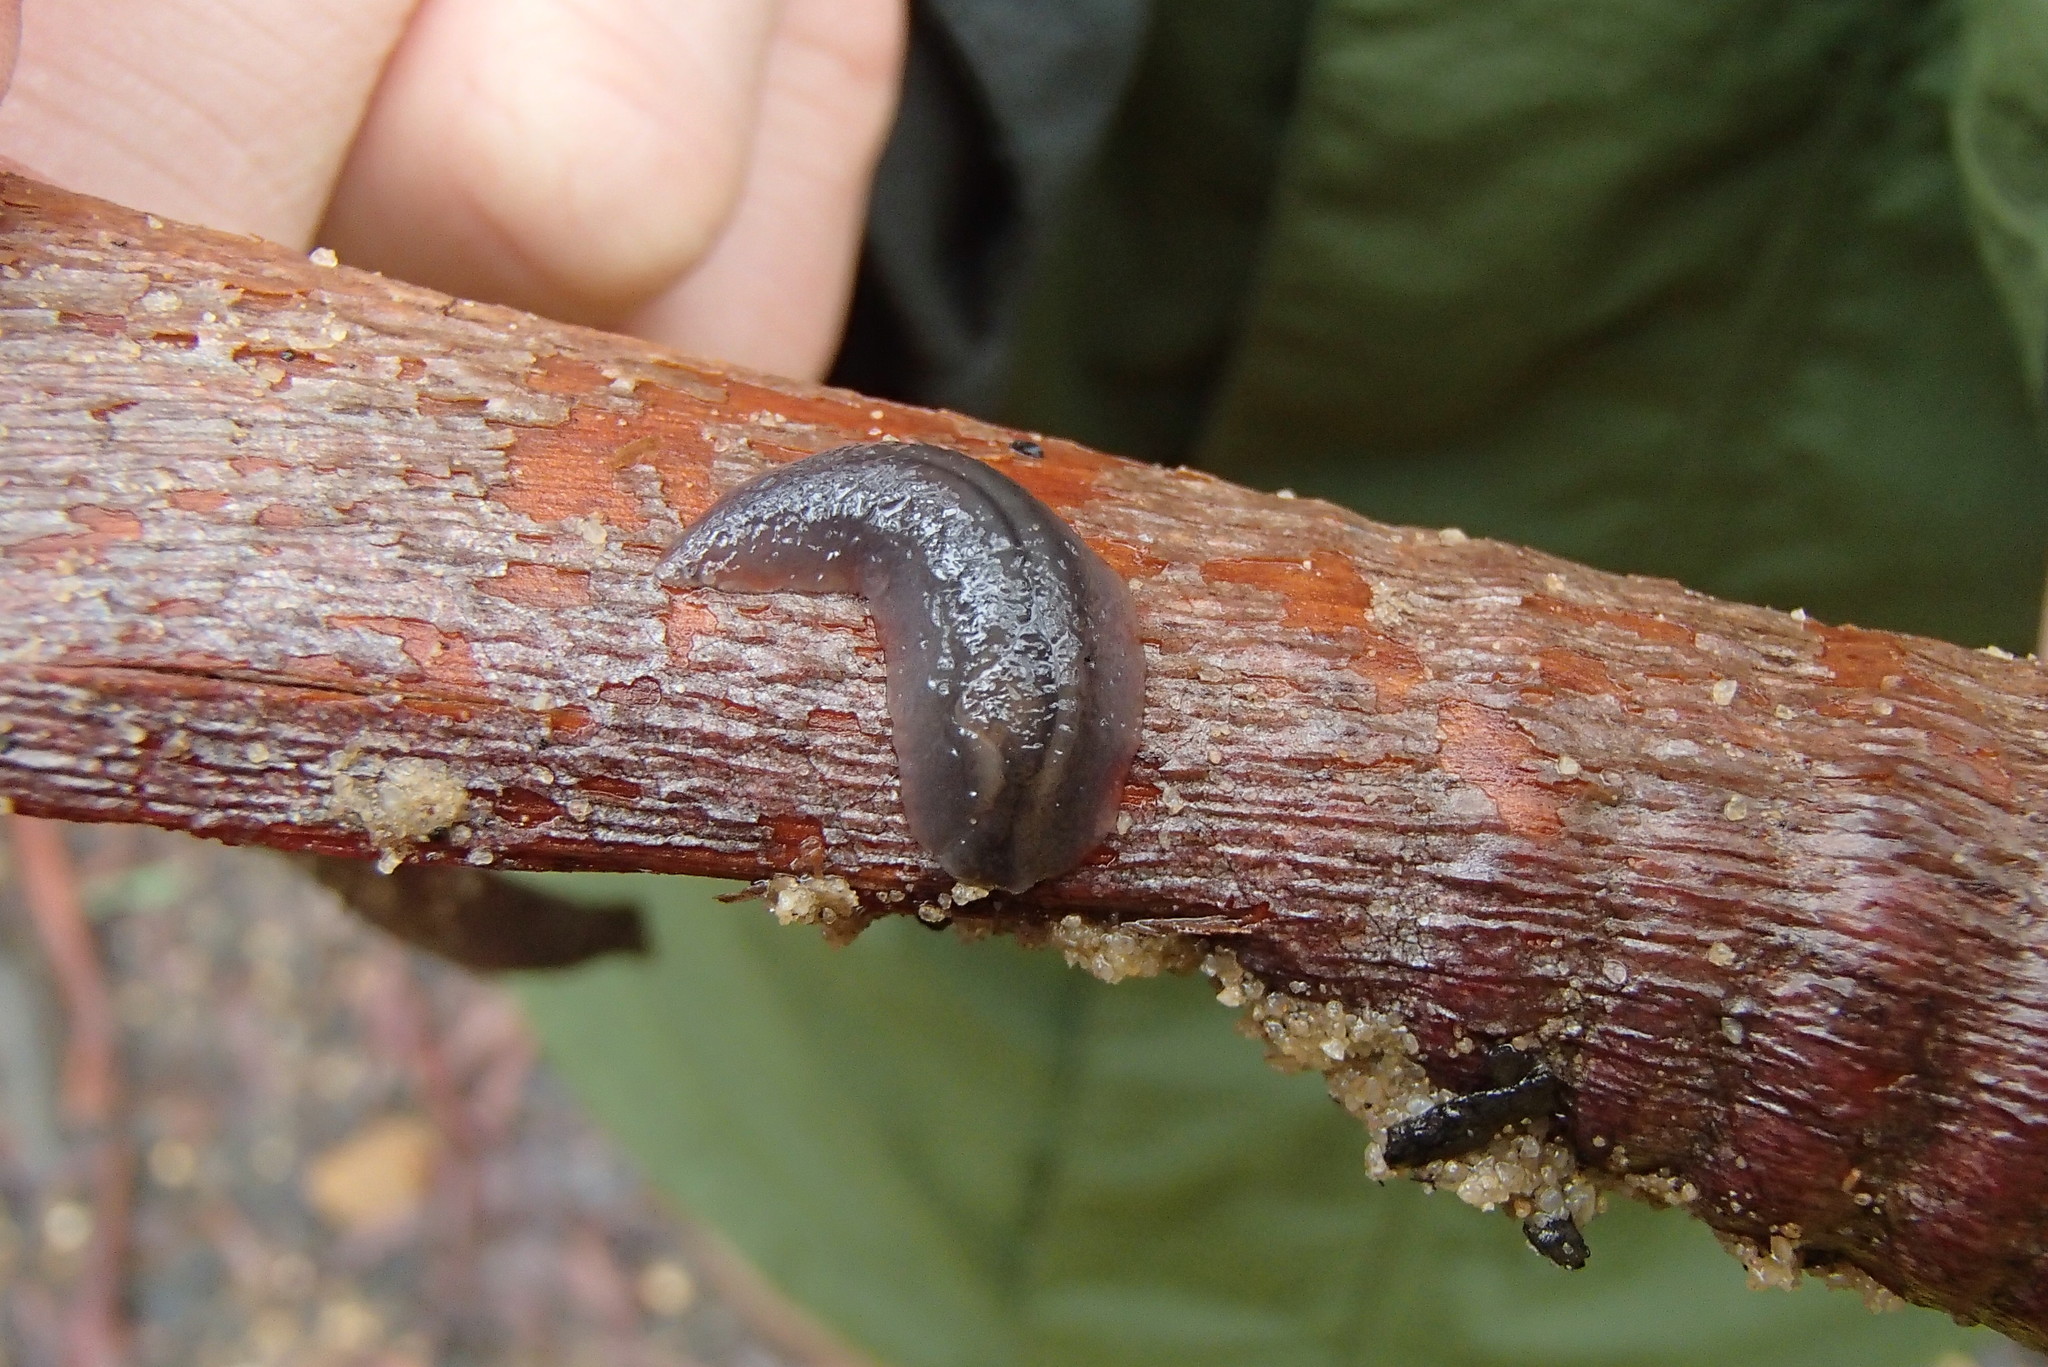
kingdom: Animalia
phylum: Mollusca
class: Gastropoda
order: Stylommatophora
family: Athoracophoridae
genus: Triboniophorus
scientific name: Triboniophorus graeffei
